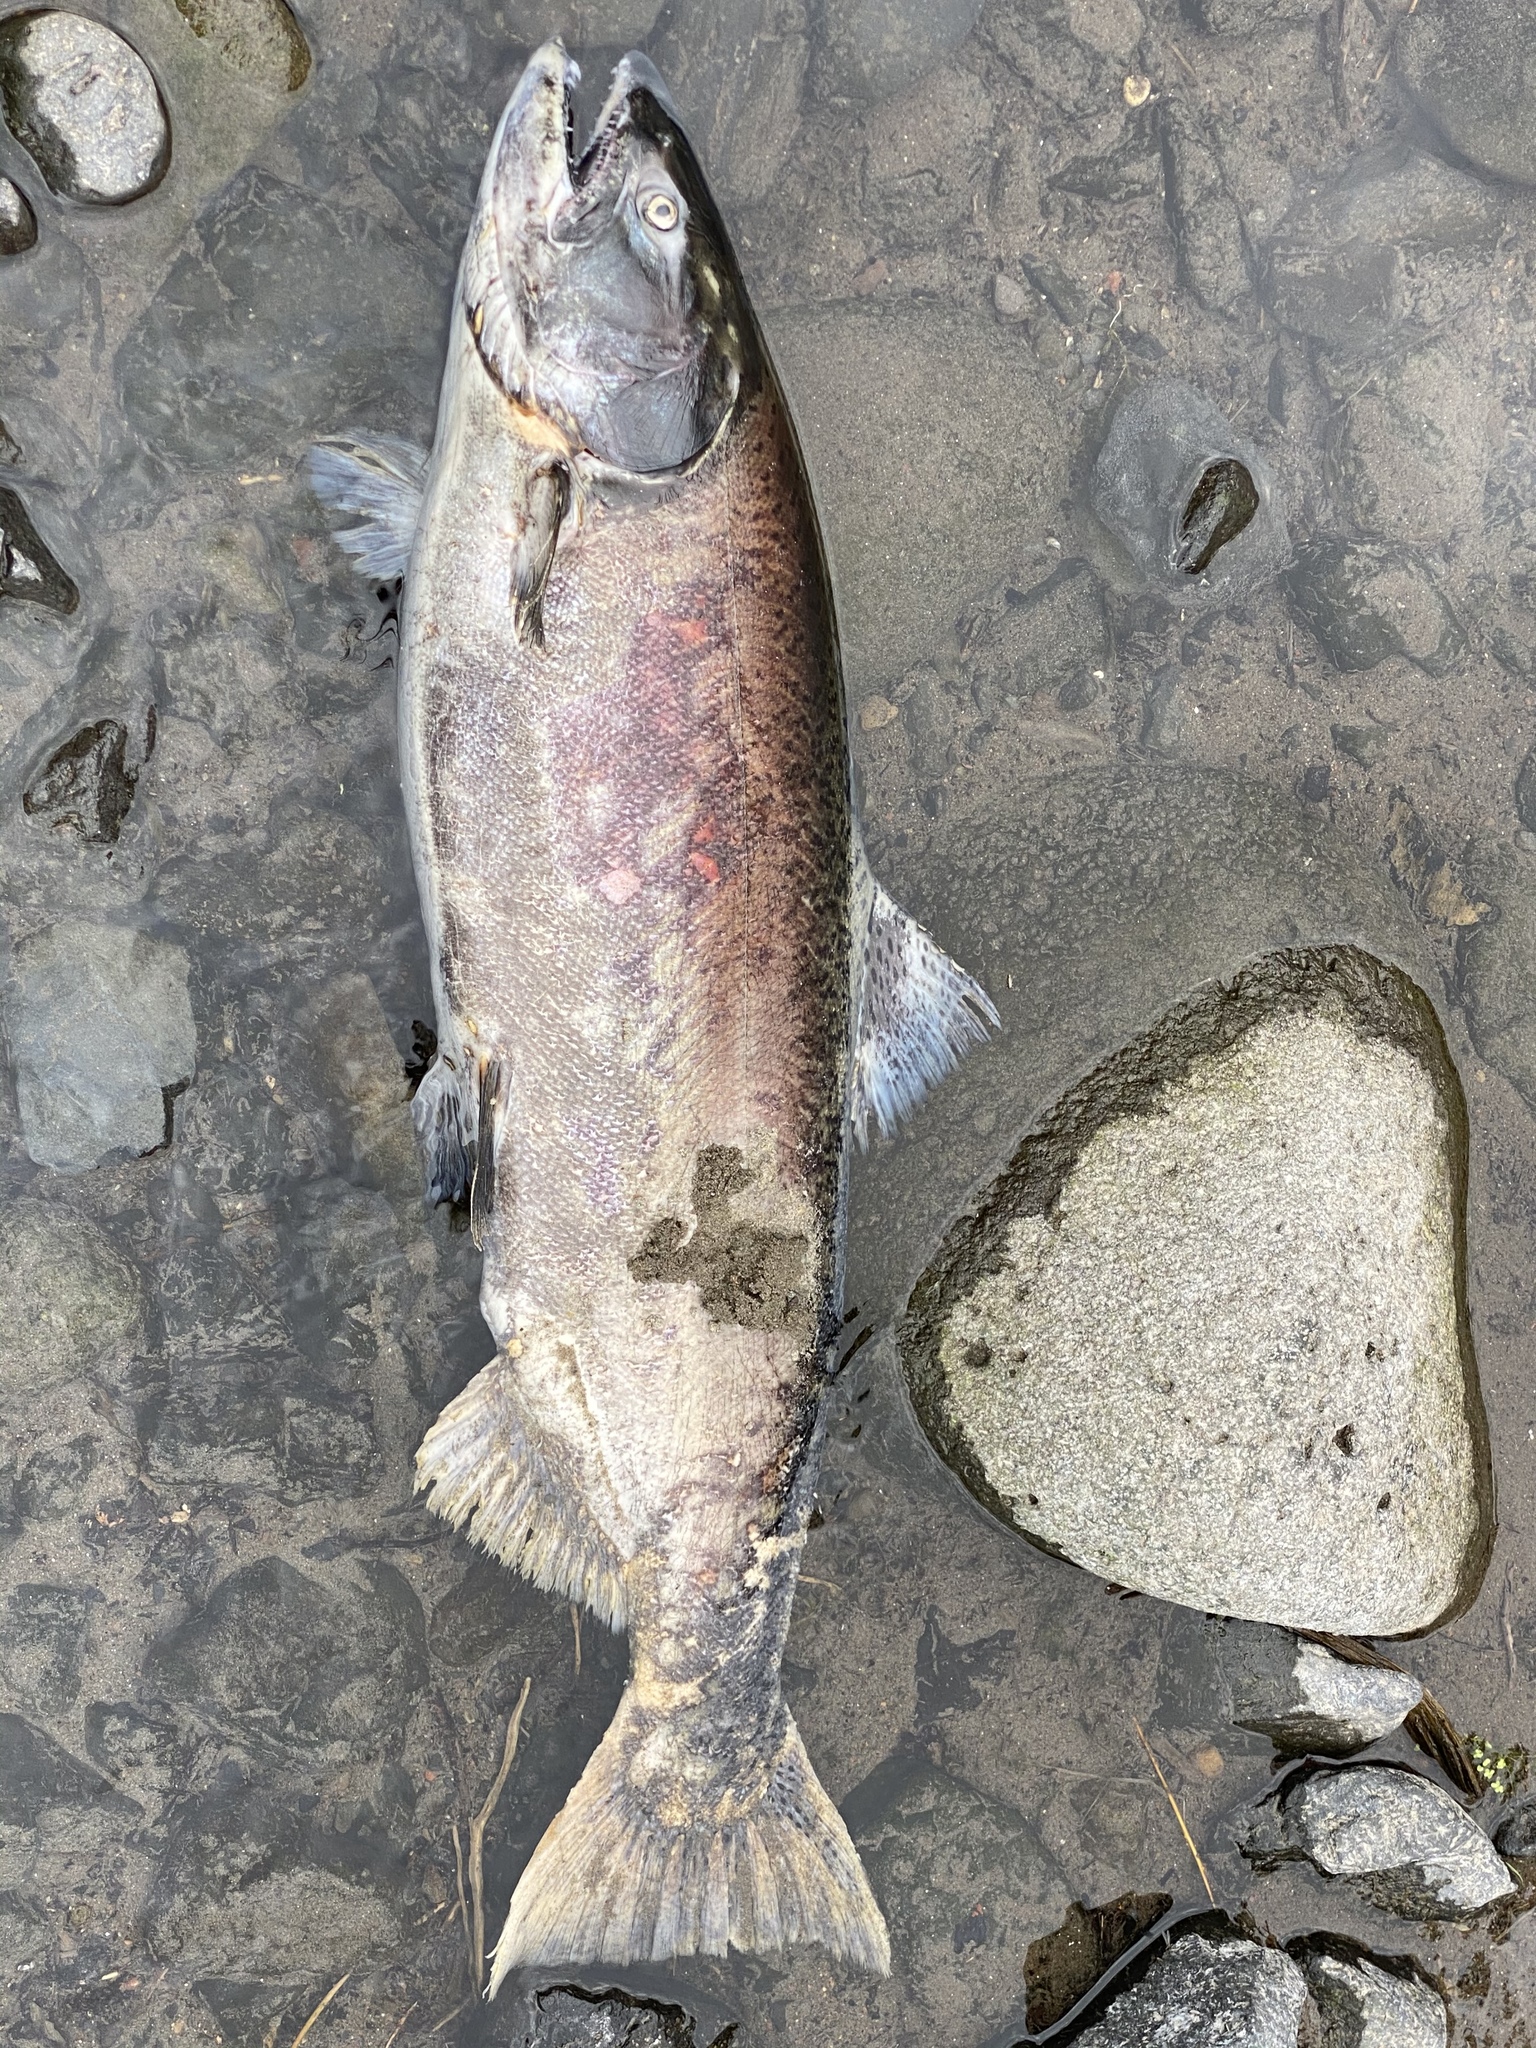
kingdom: Animalia
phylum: Chordata
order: Salmoniformes
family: Salmonidae
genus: Oncorhynchus
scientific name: Oncorhynchus tshawytscha
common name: Chinook salmon
